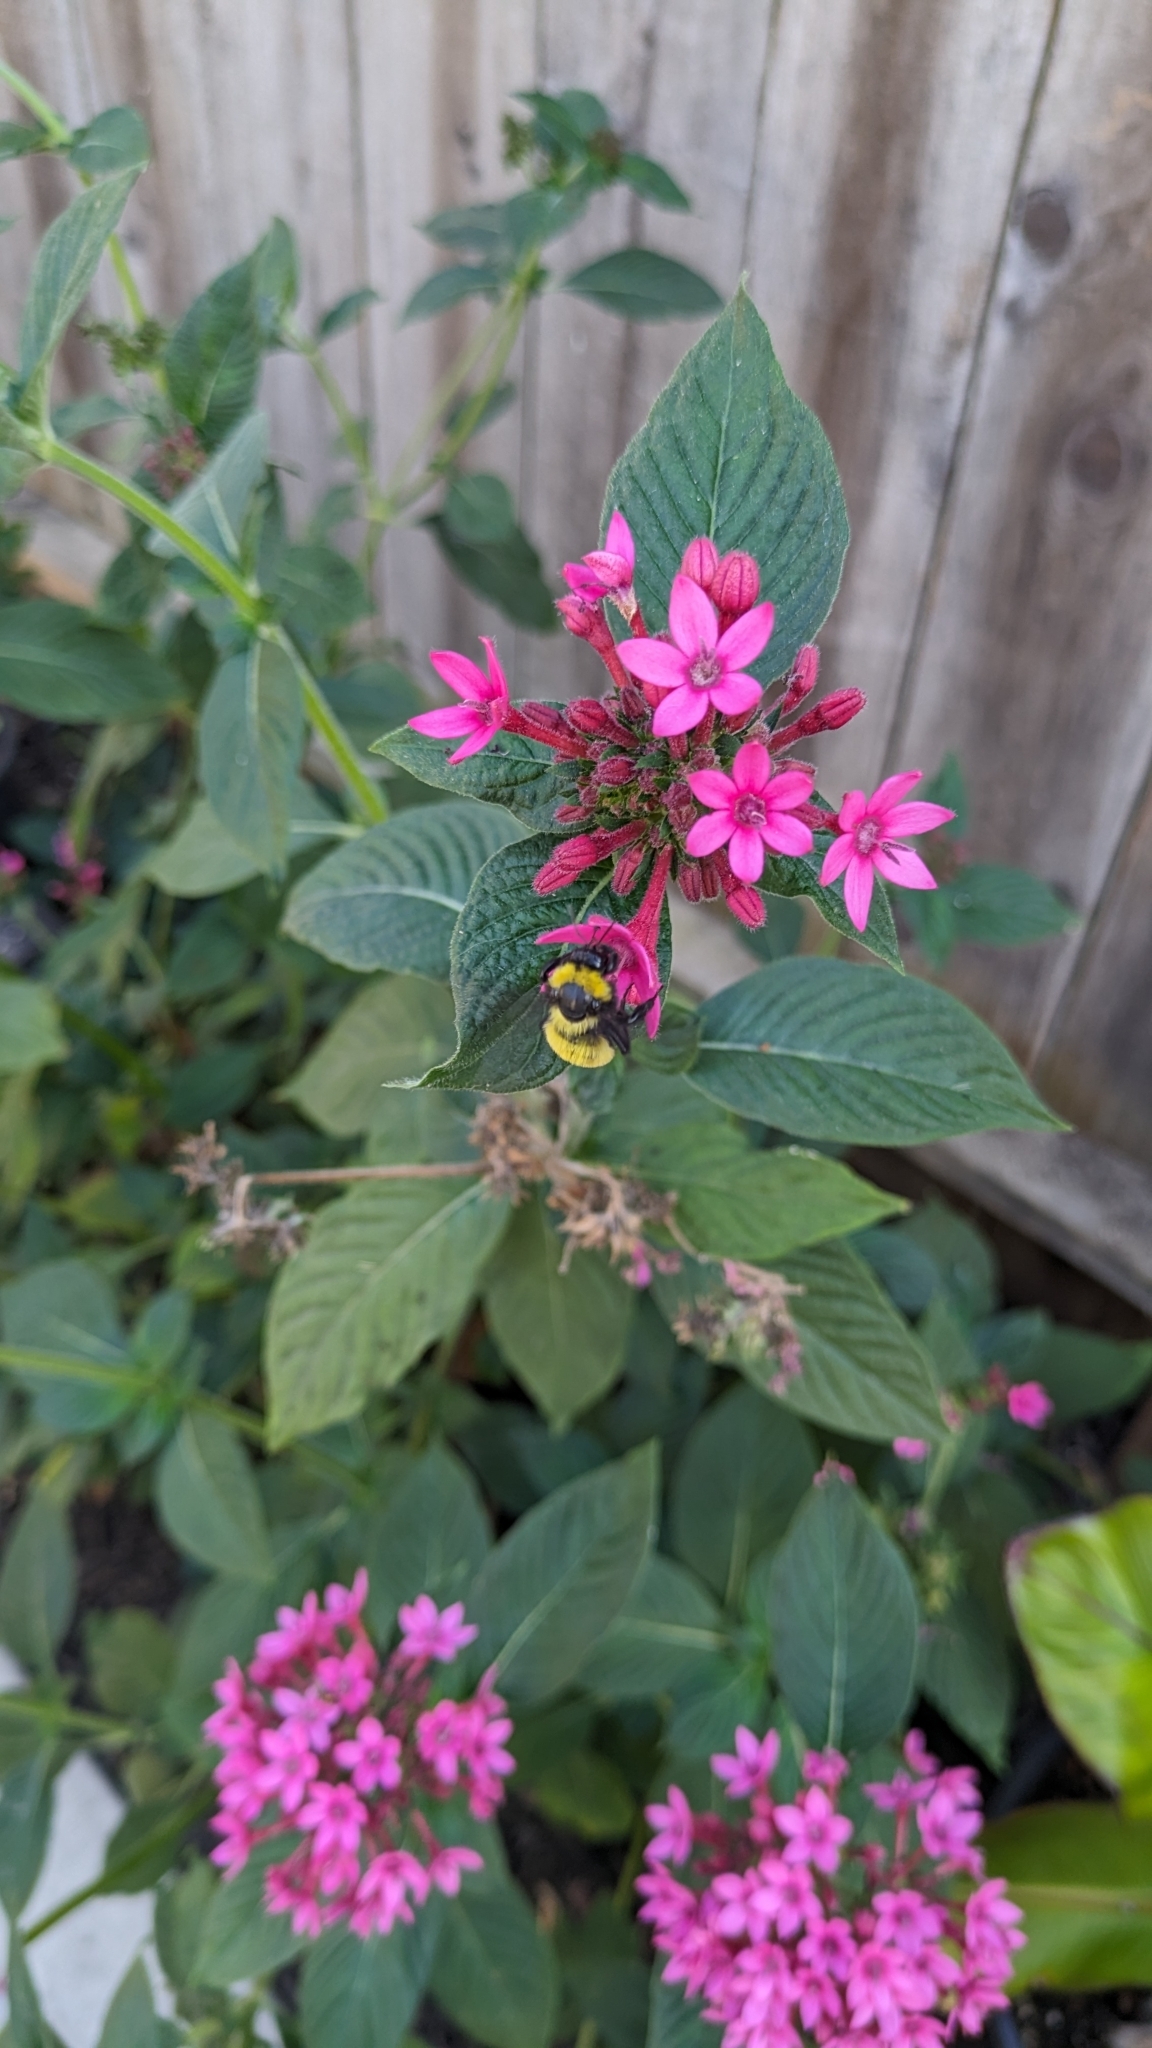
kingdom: Animalia
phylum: Arthropoda
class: Insecta
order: Hymenoptera
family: Apidae
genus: Bombus
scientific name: Bombus sonorus
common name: Sonoran bumble bee
